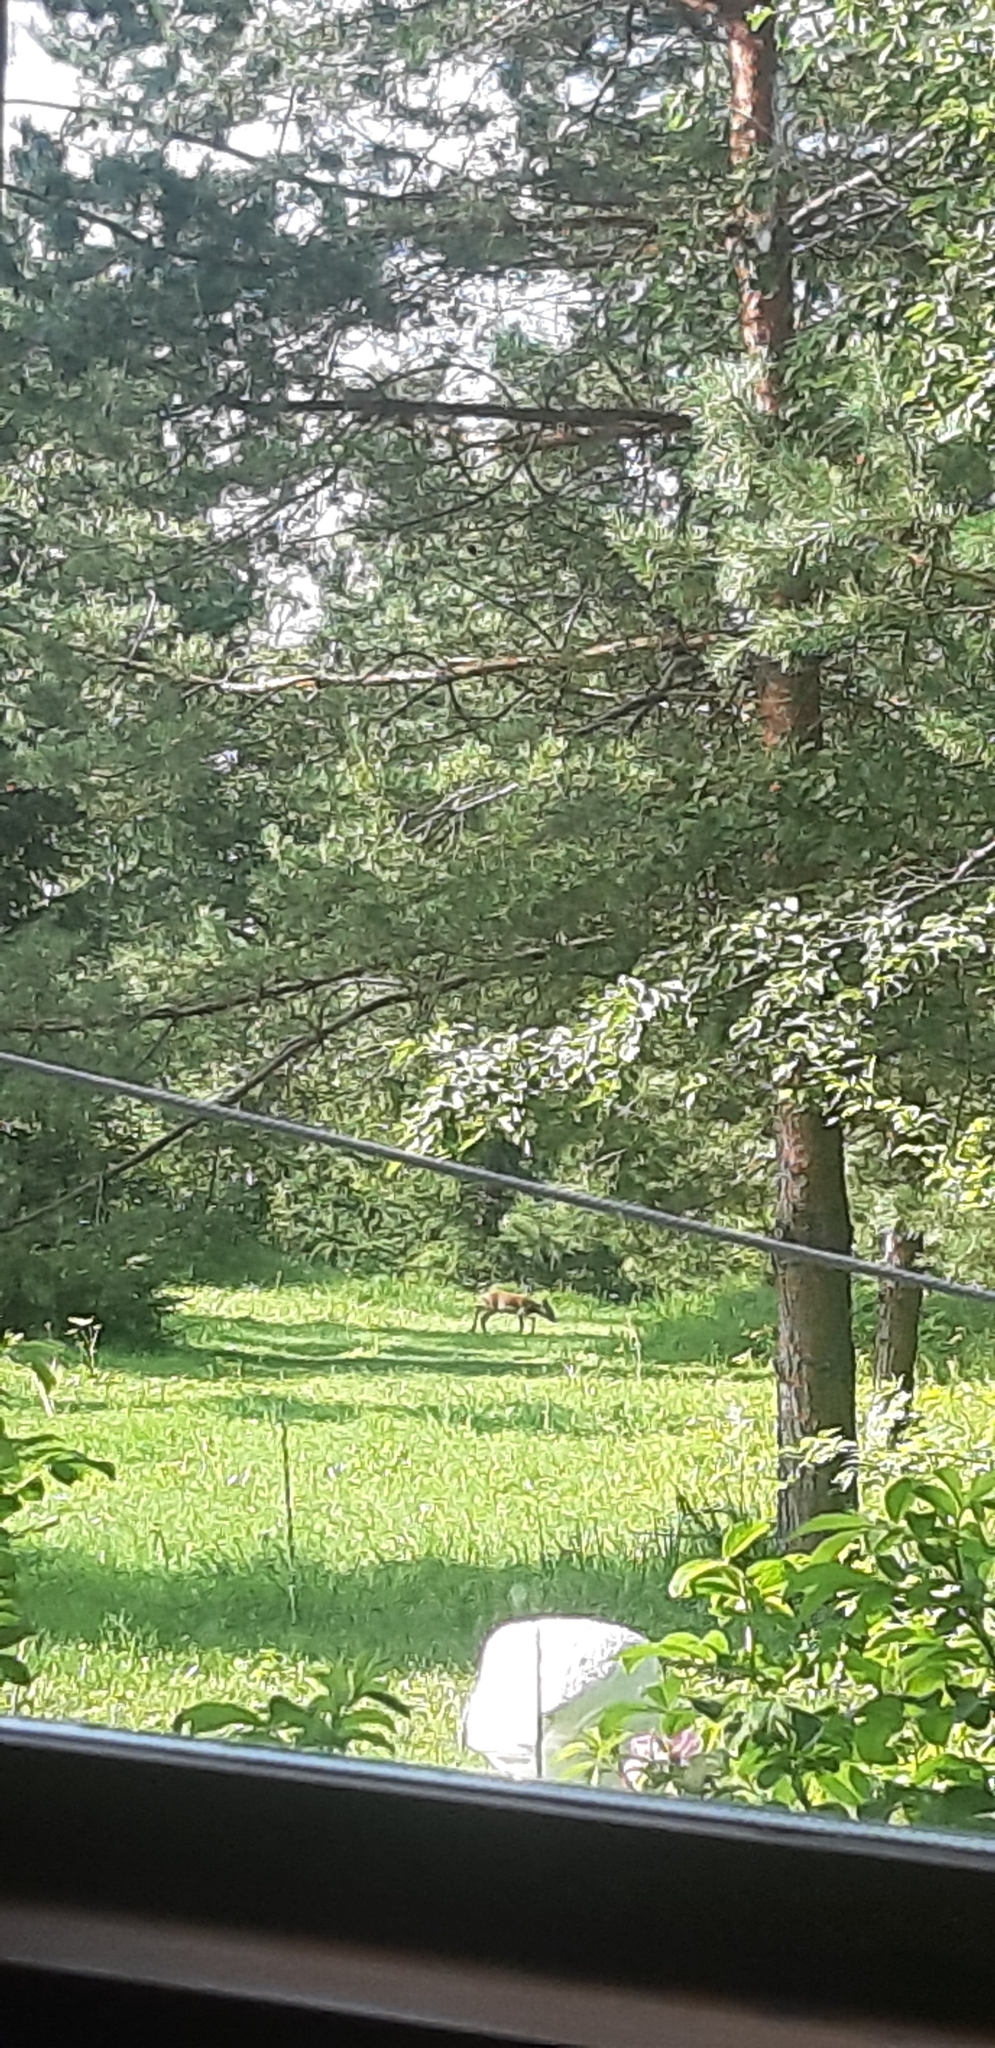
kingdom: Animalia
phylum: Chordata
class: Mammalia
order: Artiodactyla
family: Cervidae
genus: Capreolus
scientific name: Capreolus capreolus
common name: Western roe deer
